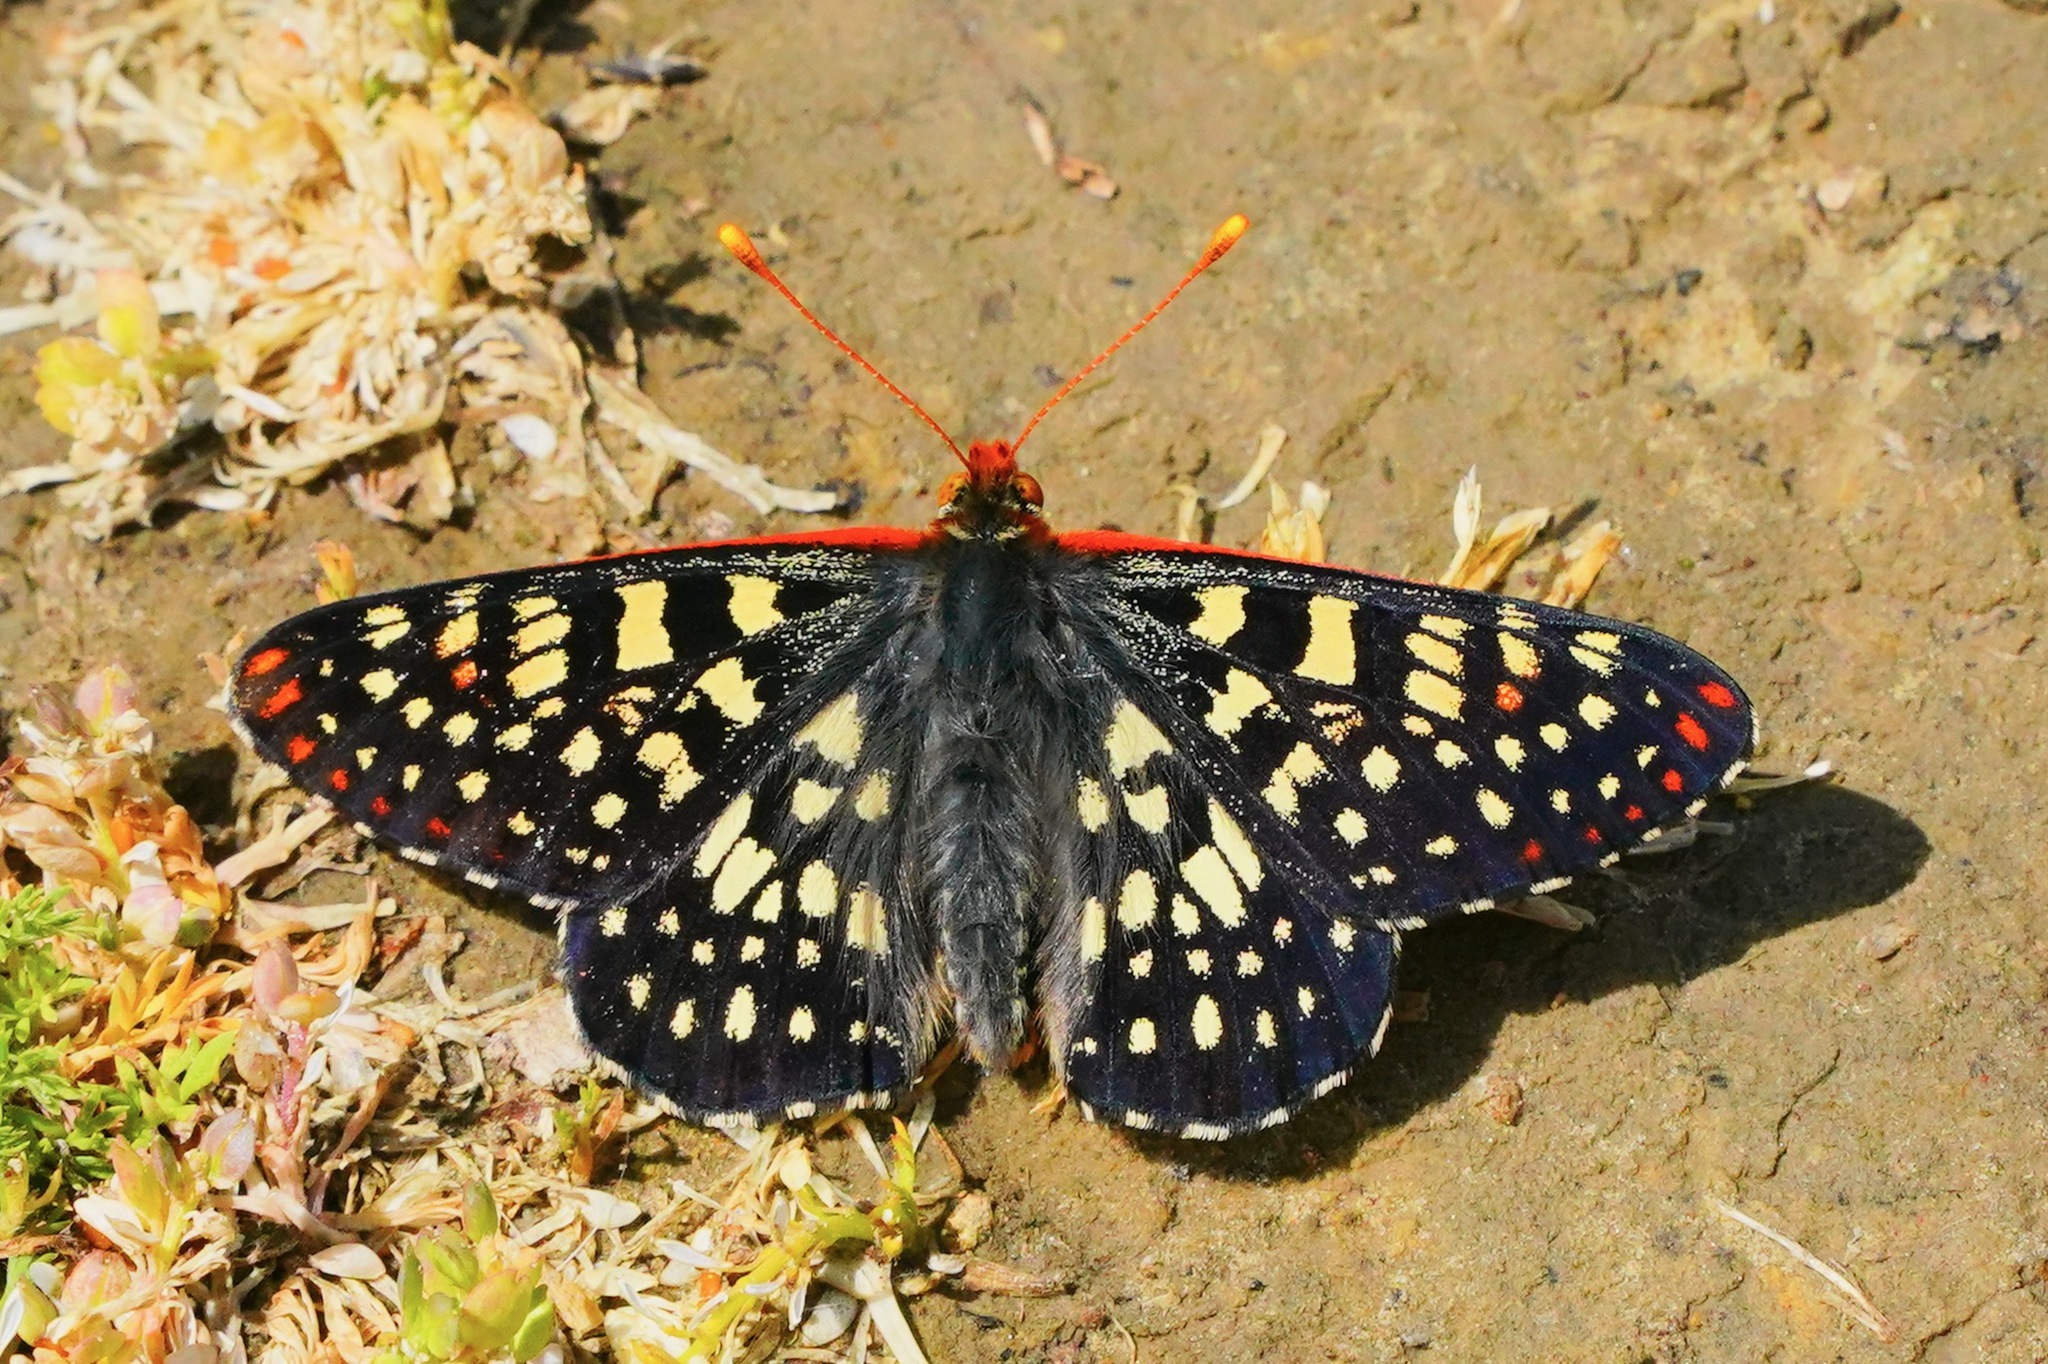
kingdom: Animalia
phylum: Arthropoda
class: Insecta
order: Lepidoptera
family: Nymphalidae
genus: Occidryas
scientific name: Occidryas chalcedona
